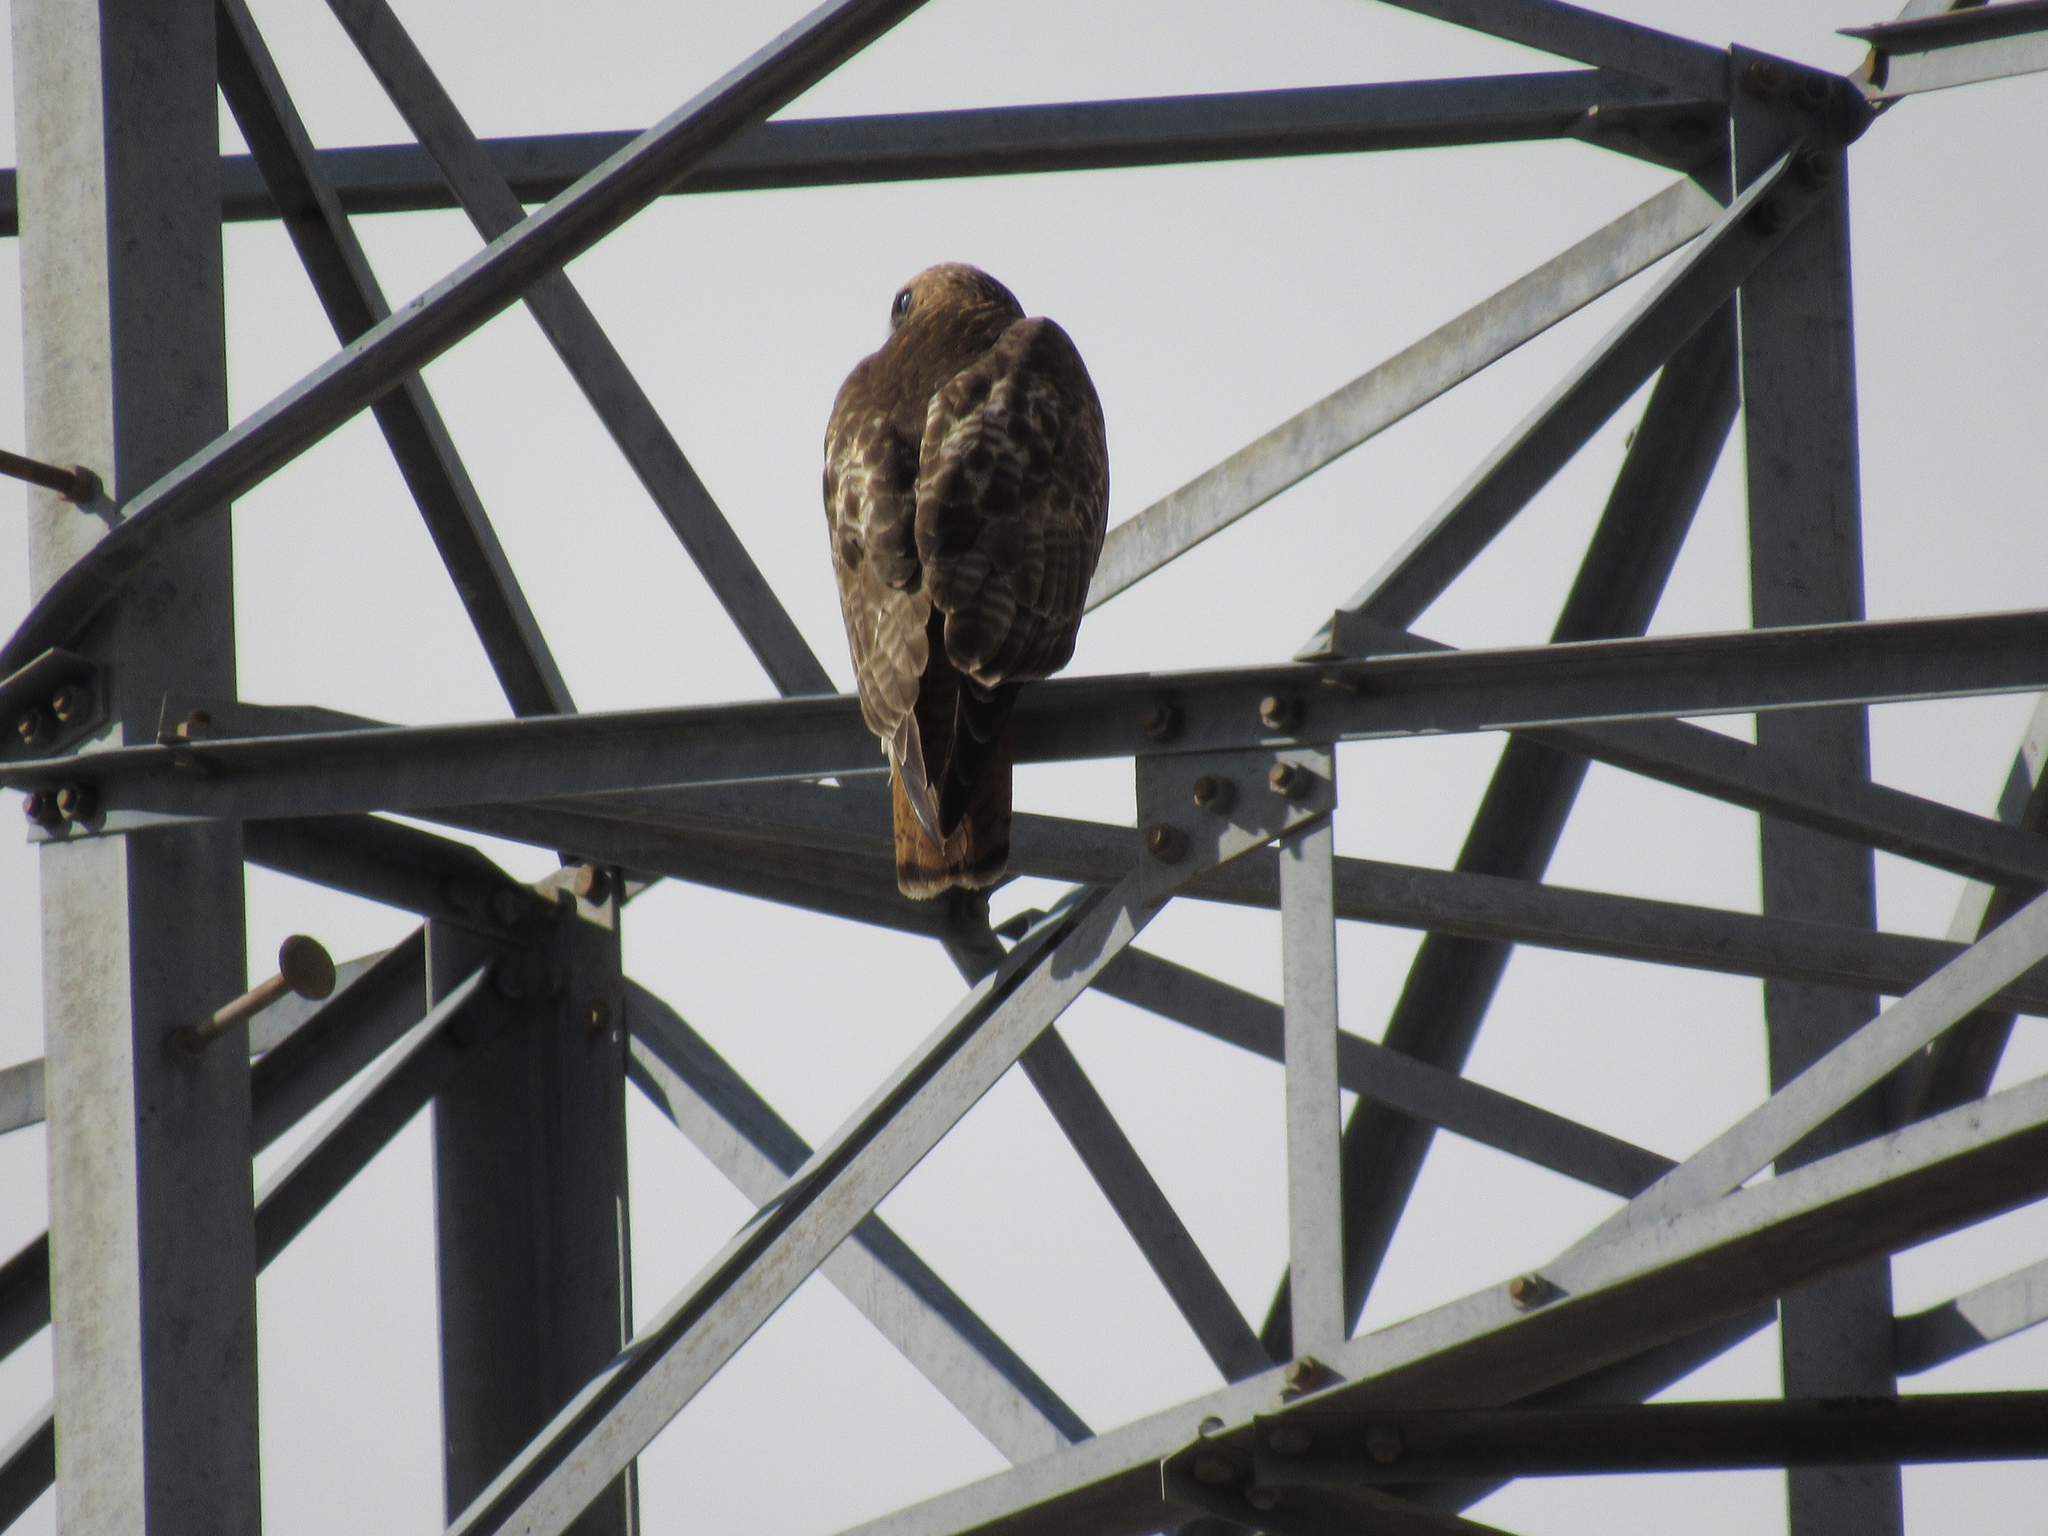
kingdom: Animalia
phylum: Chordata
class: Aves
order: Accipitriformes
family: Accipitridae
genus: Buteo
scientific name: Buteo jamaicensis
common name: Red-tailed hawk
